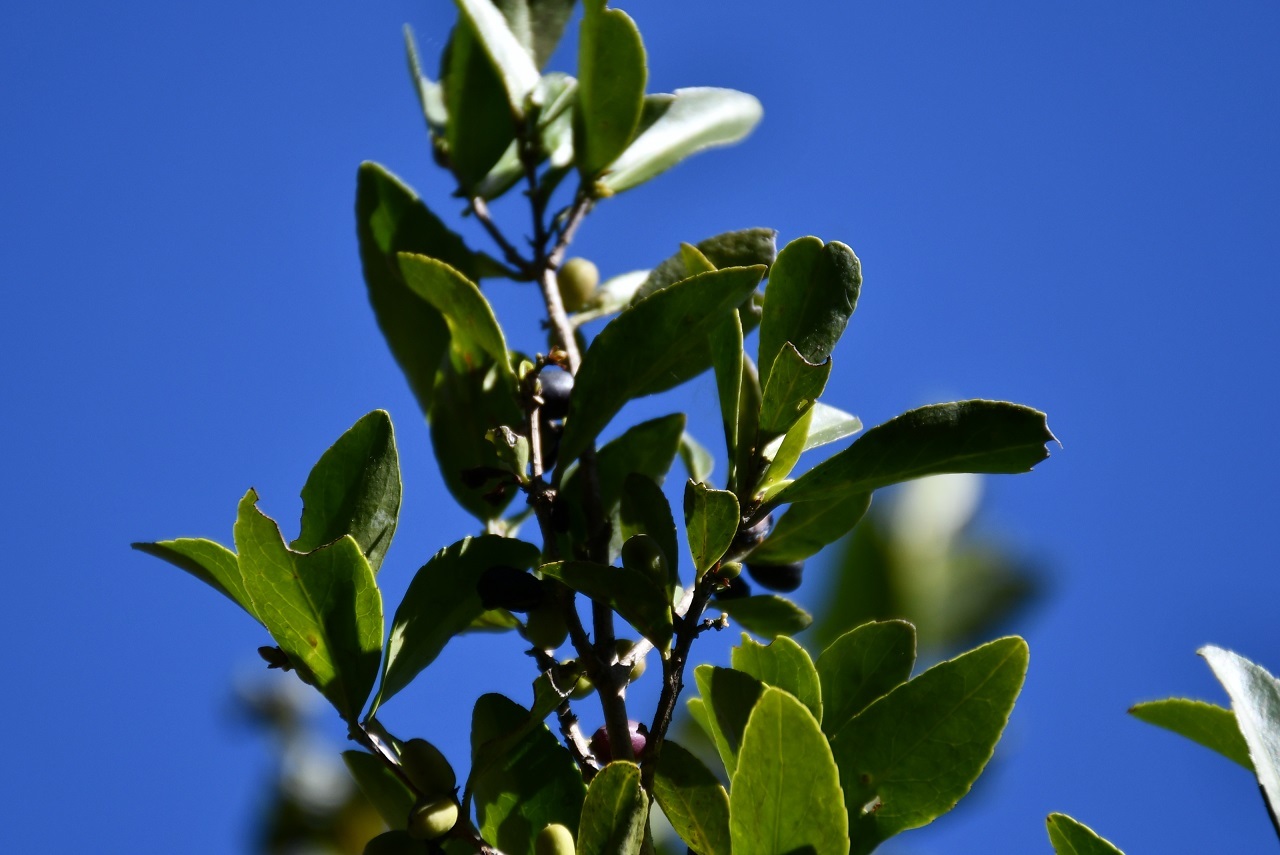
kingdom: Plantae
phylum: Tracheophyta
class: Magnoliopsida
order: Celastrales
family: Celastraceae
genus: Gyminda
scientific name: Gyminda tonduzii
